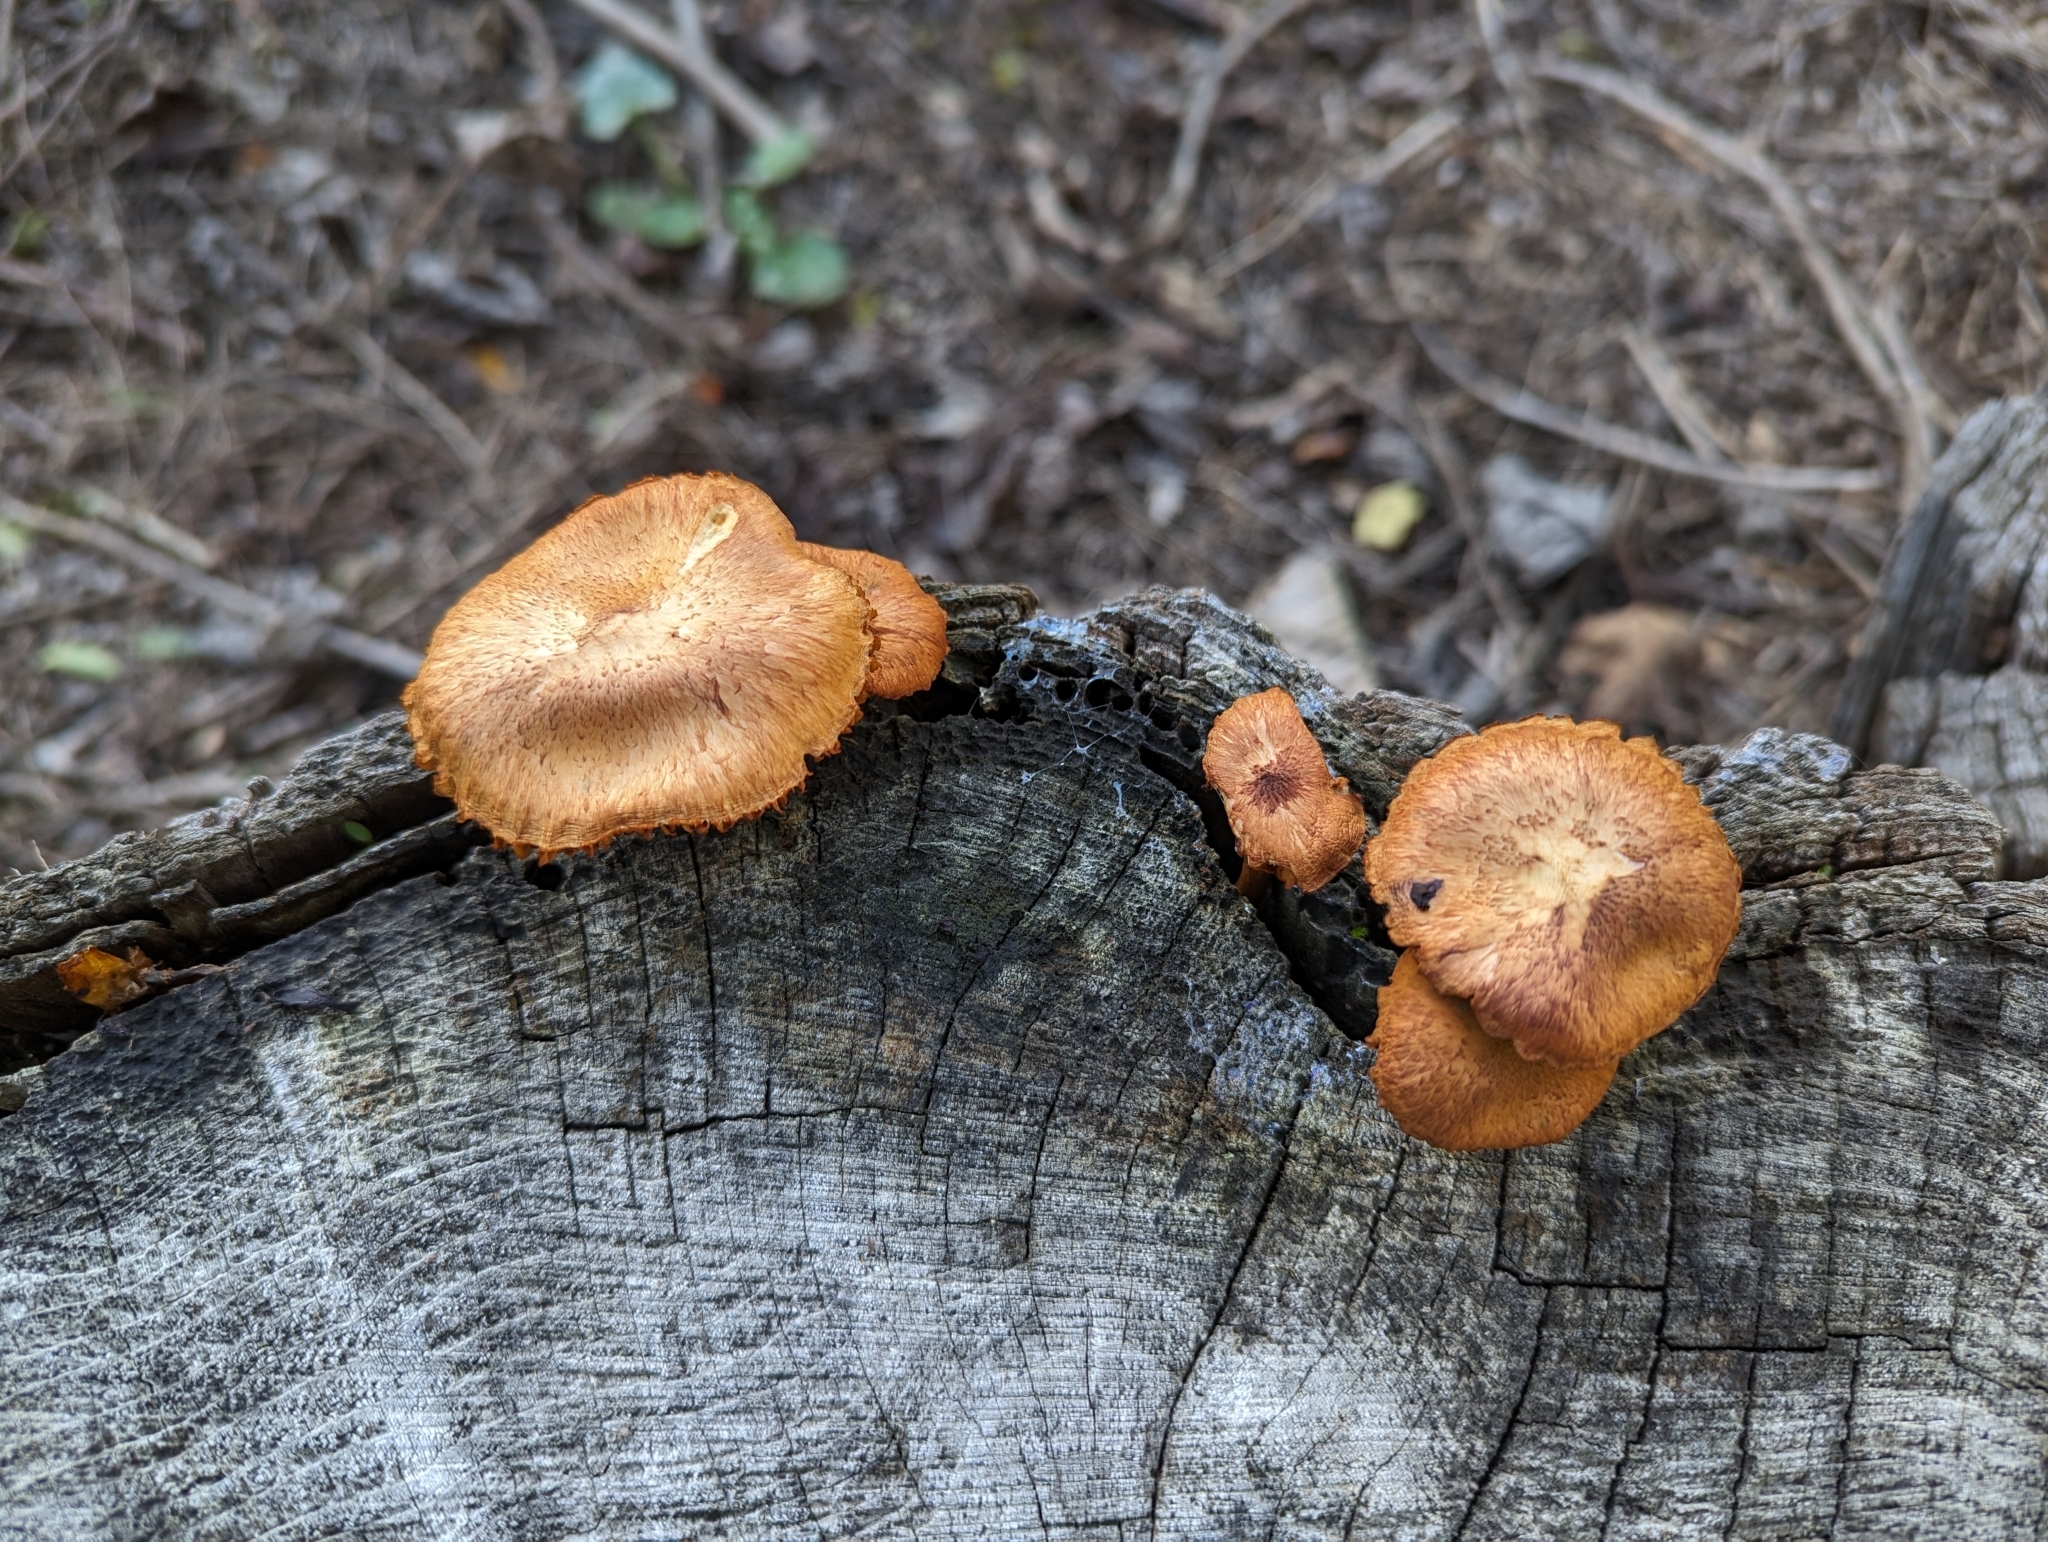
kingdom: Fungi
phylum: Basidiomycota
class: Agaricomycetes
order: Agaricales
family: Hymenogastraceae
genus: Gymnopilus
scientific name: Gymnopilus luteofolius
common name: Yellow-gilled gymnopilus
